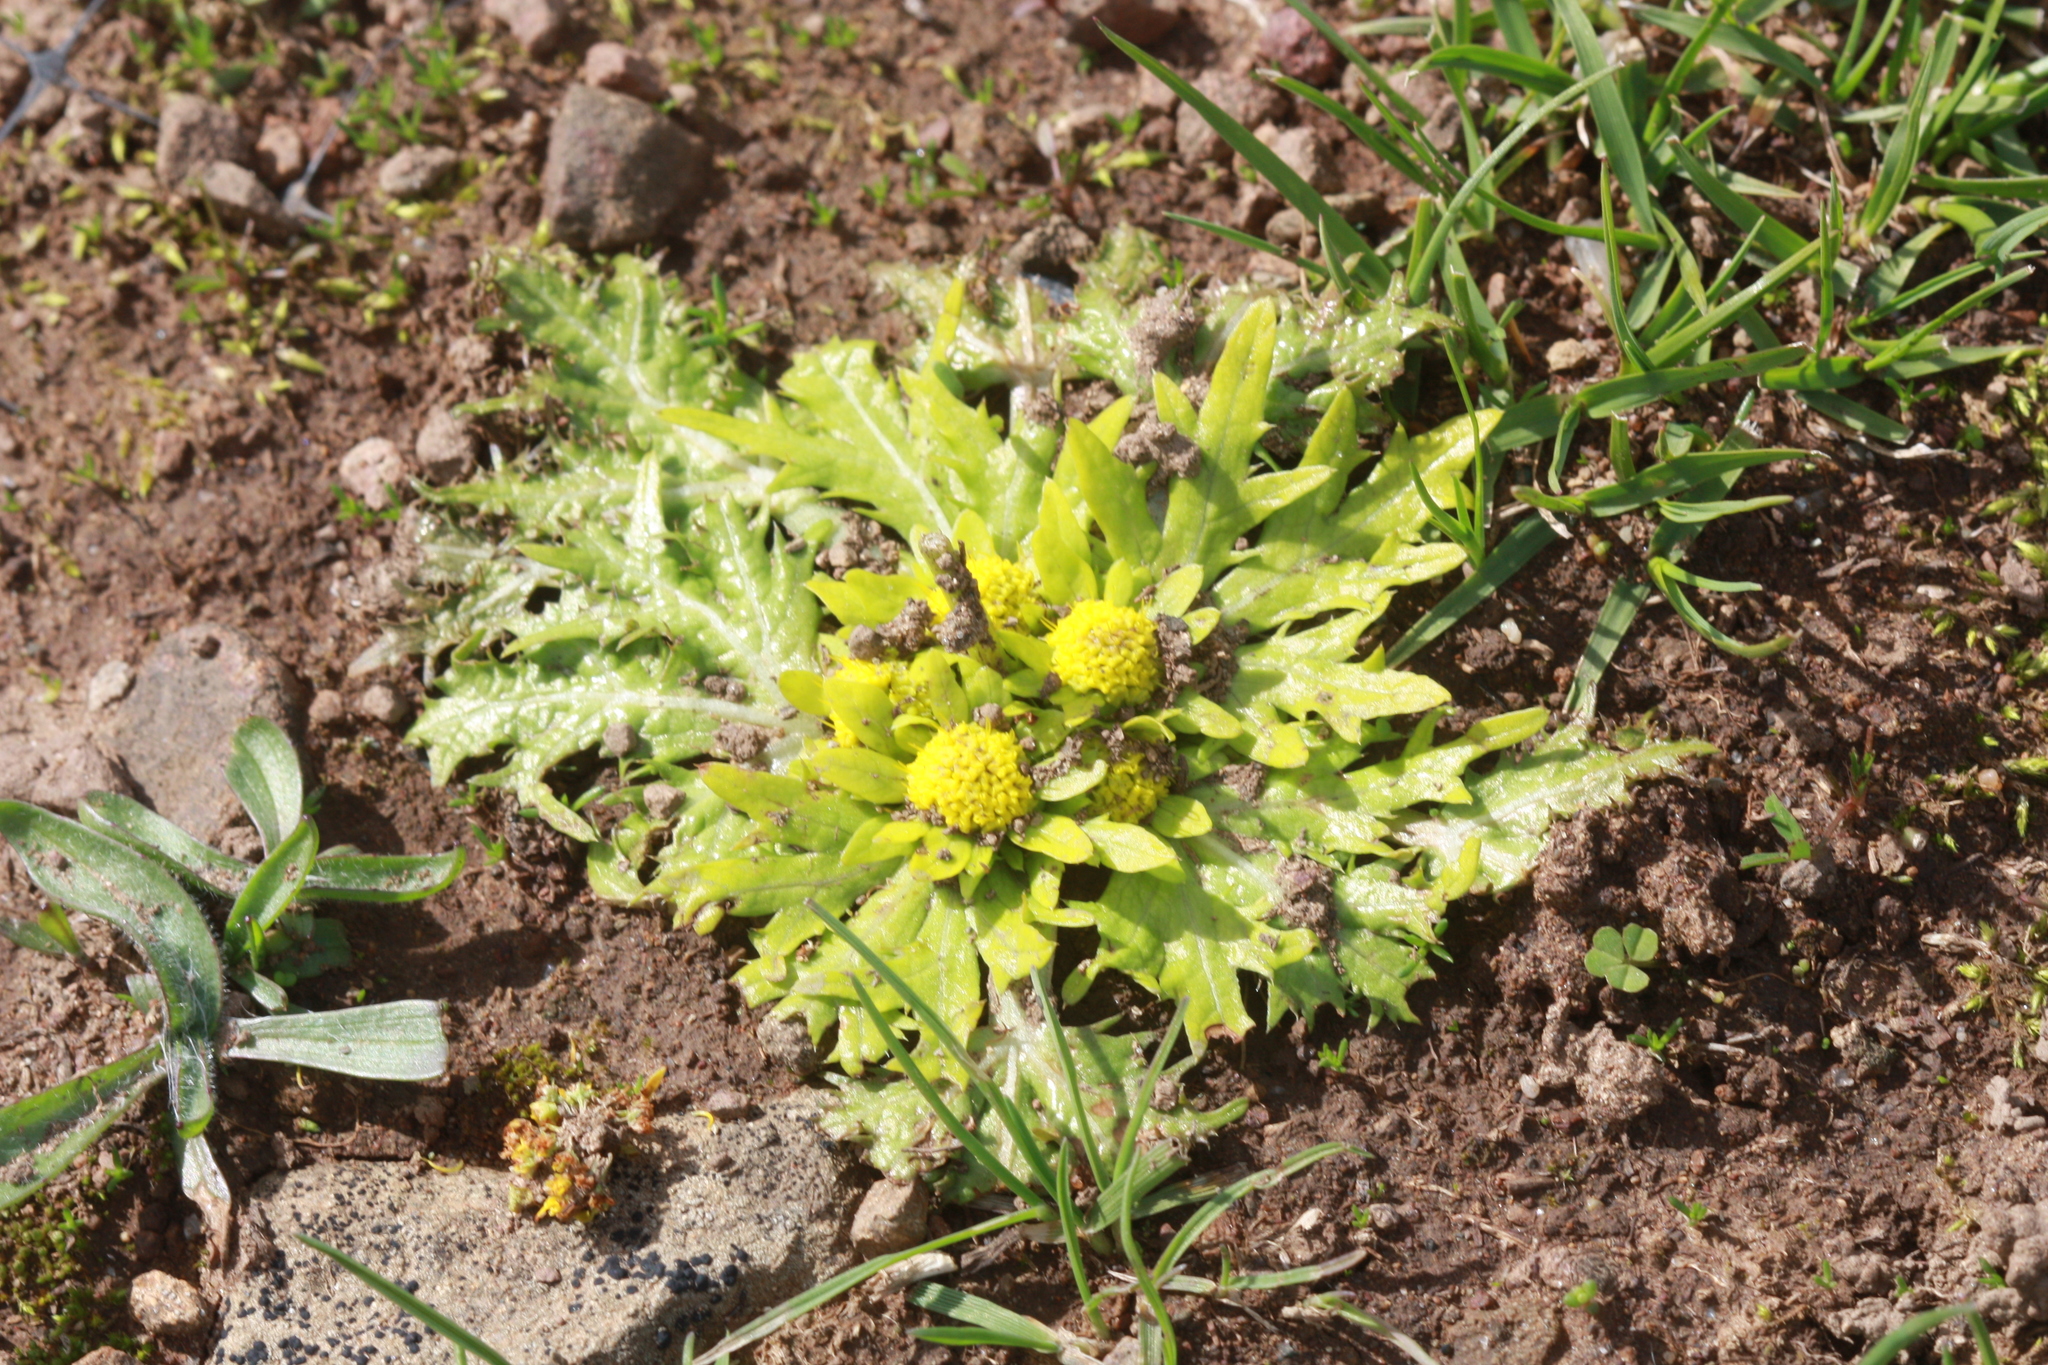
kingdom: Plantae
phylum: Tracheophyta
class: Magnoliopsida
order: Apiales
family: Apiaceae
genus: Sanicula
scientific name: Sanicula arctopoides
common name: Footsteps-of-spring
